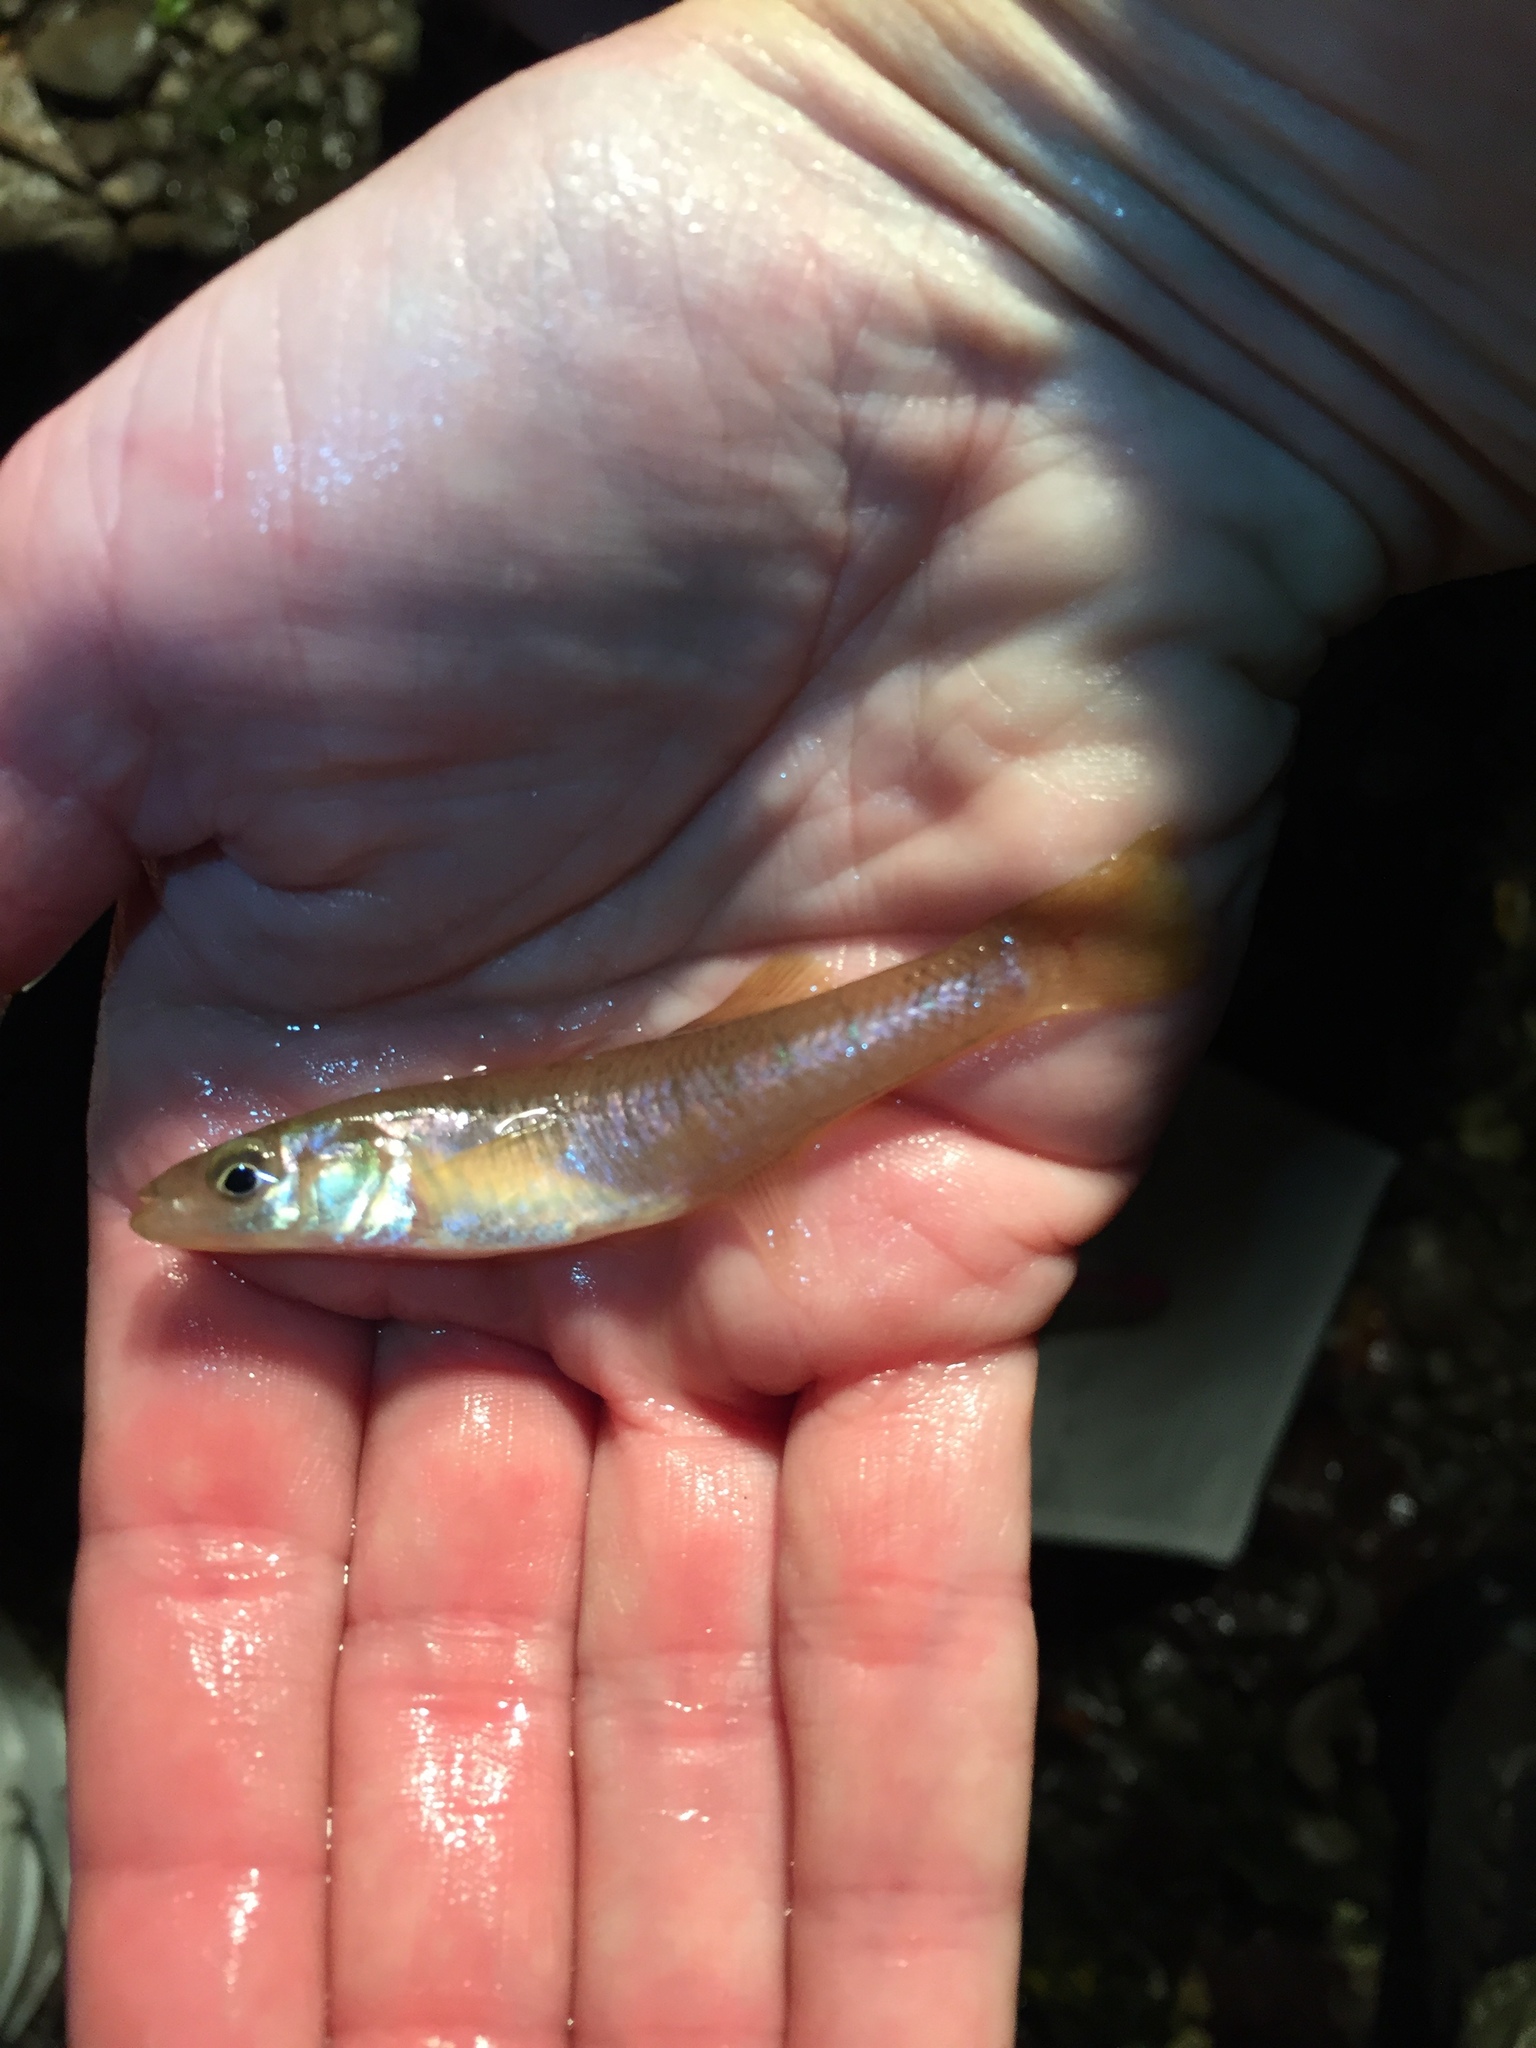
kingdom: Animalia
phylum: Chordata
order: Cyprinodontiformes
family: Fundulidae
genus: Fundulus
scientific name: Fundulus diaphanus
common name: Banded killifish
